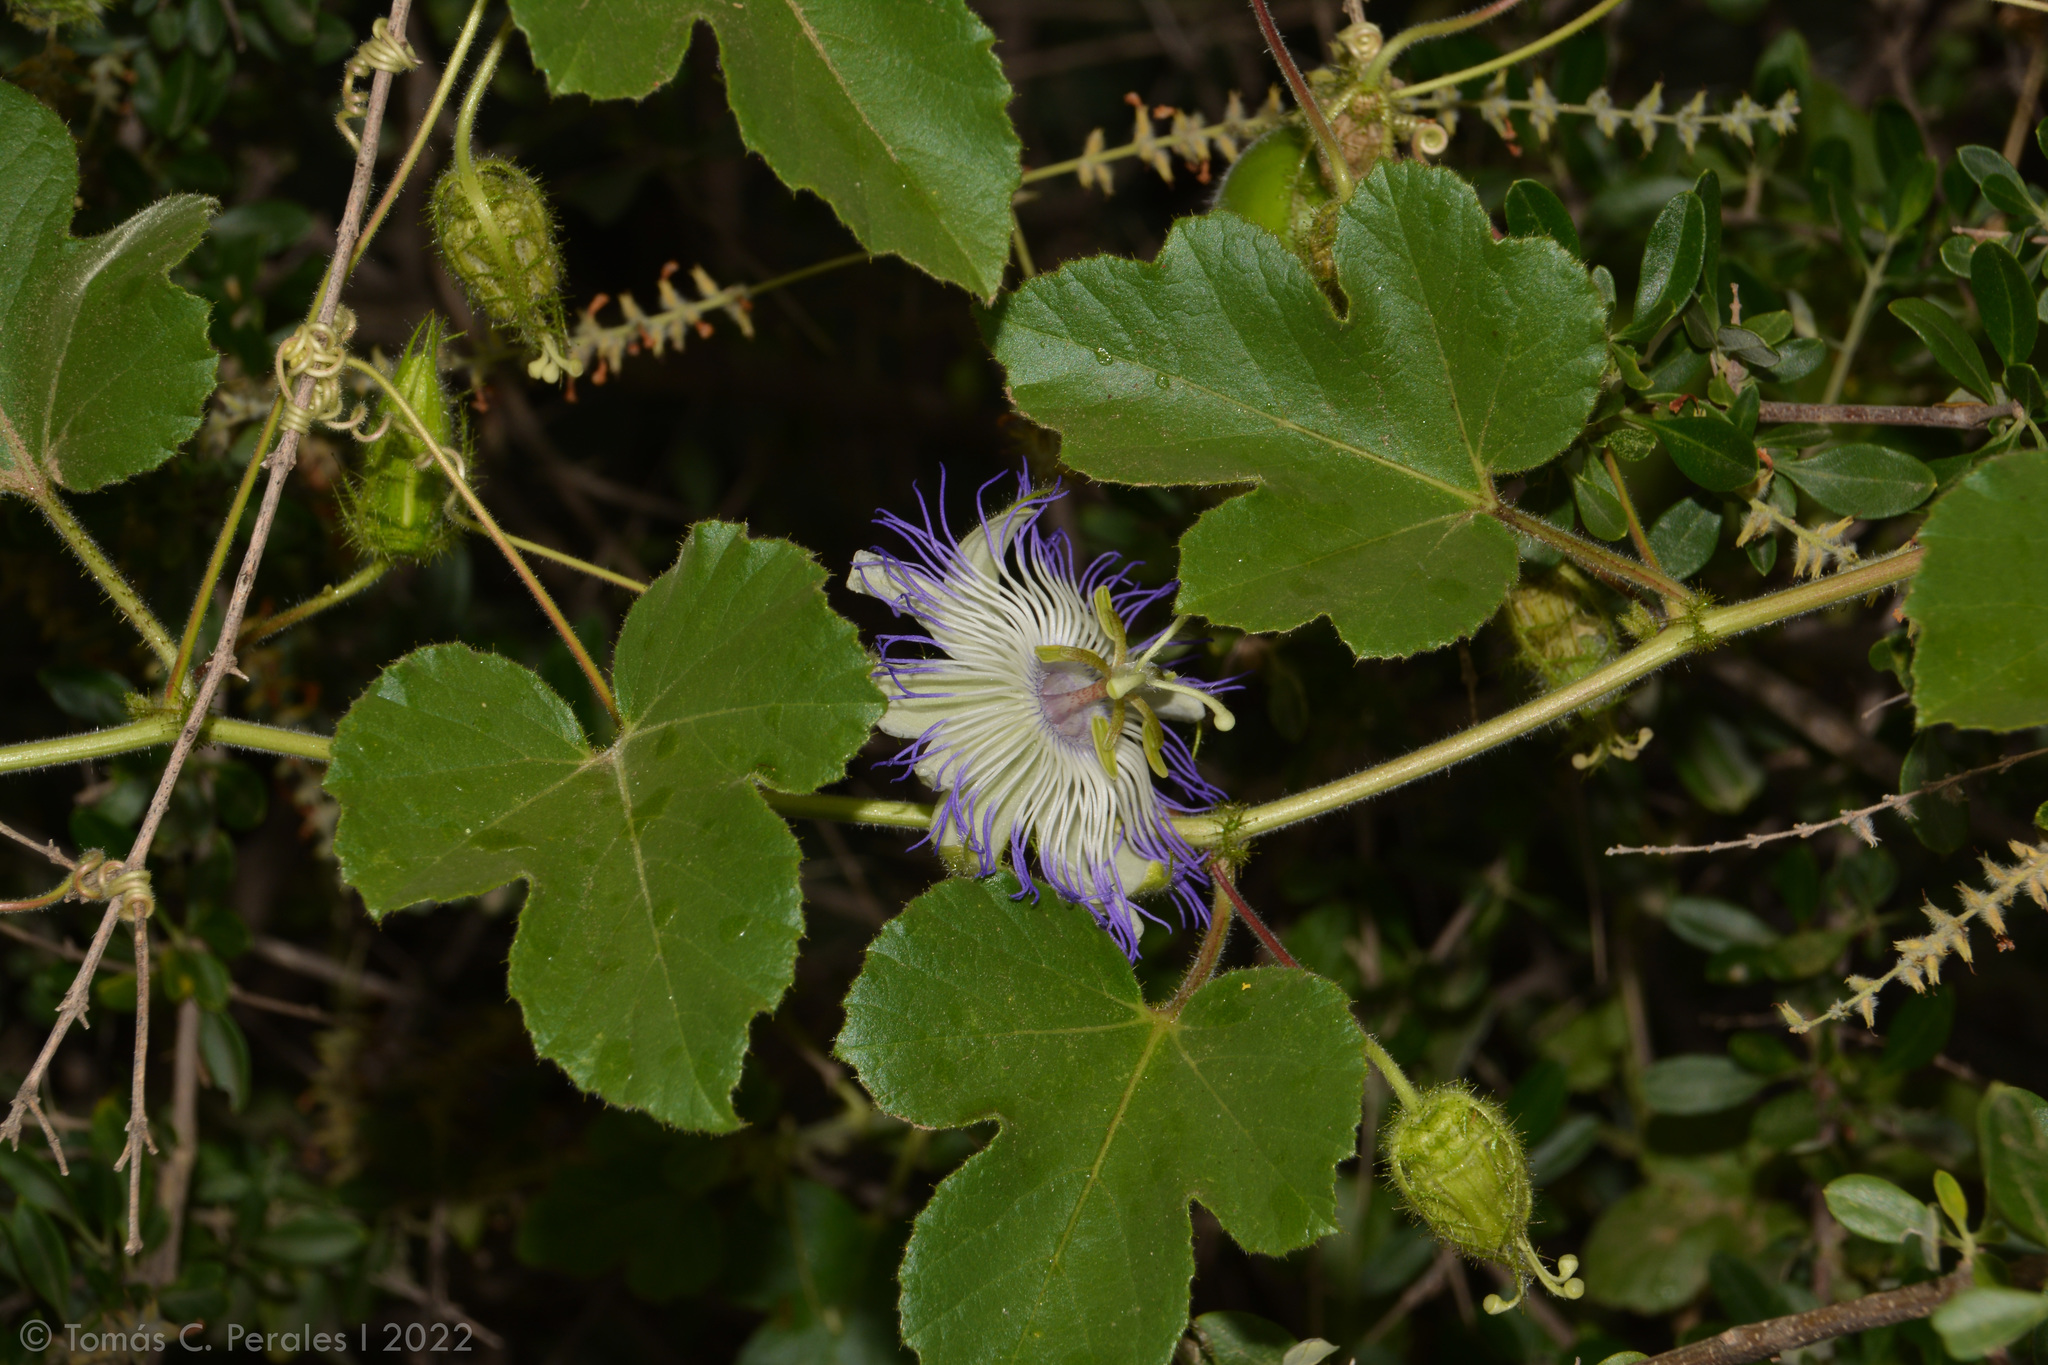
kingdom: Plantae
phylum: Tracheophyta
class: Magnoliopsida
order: Malpighiales
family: Passifloraceae
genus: Passiflora
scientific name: Passiflora foetida
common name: Fetid passionflower
